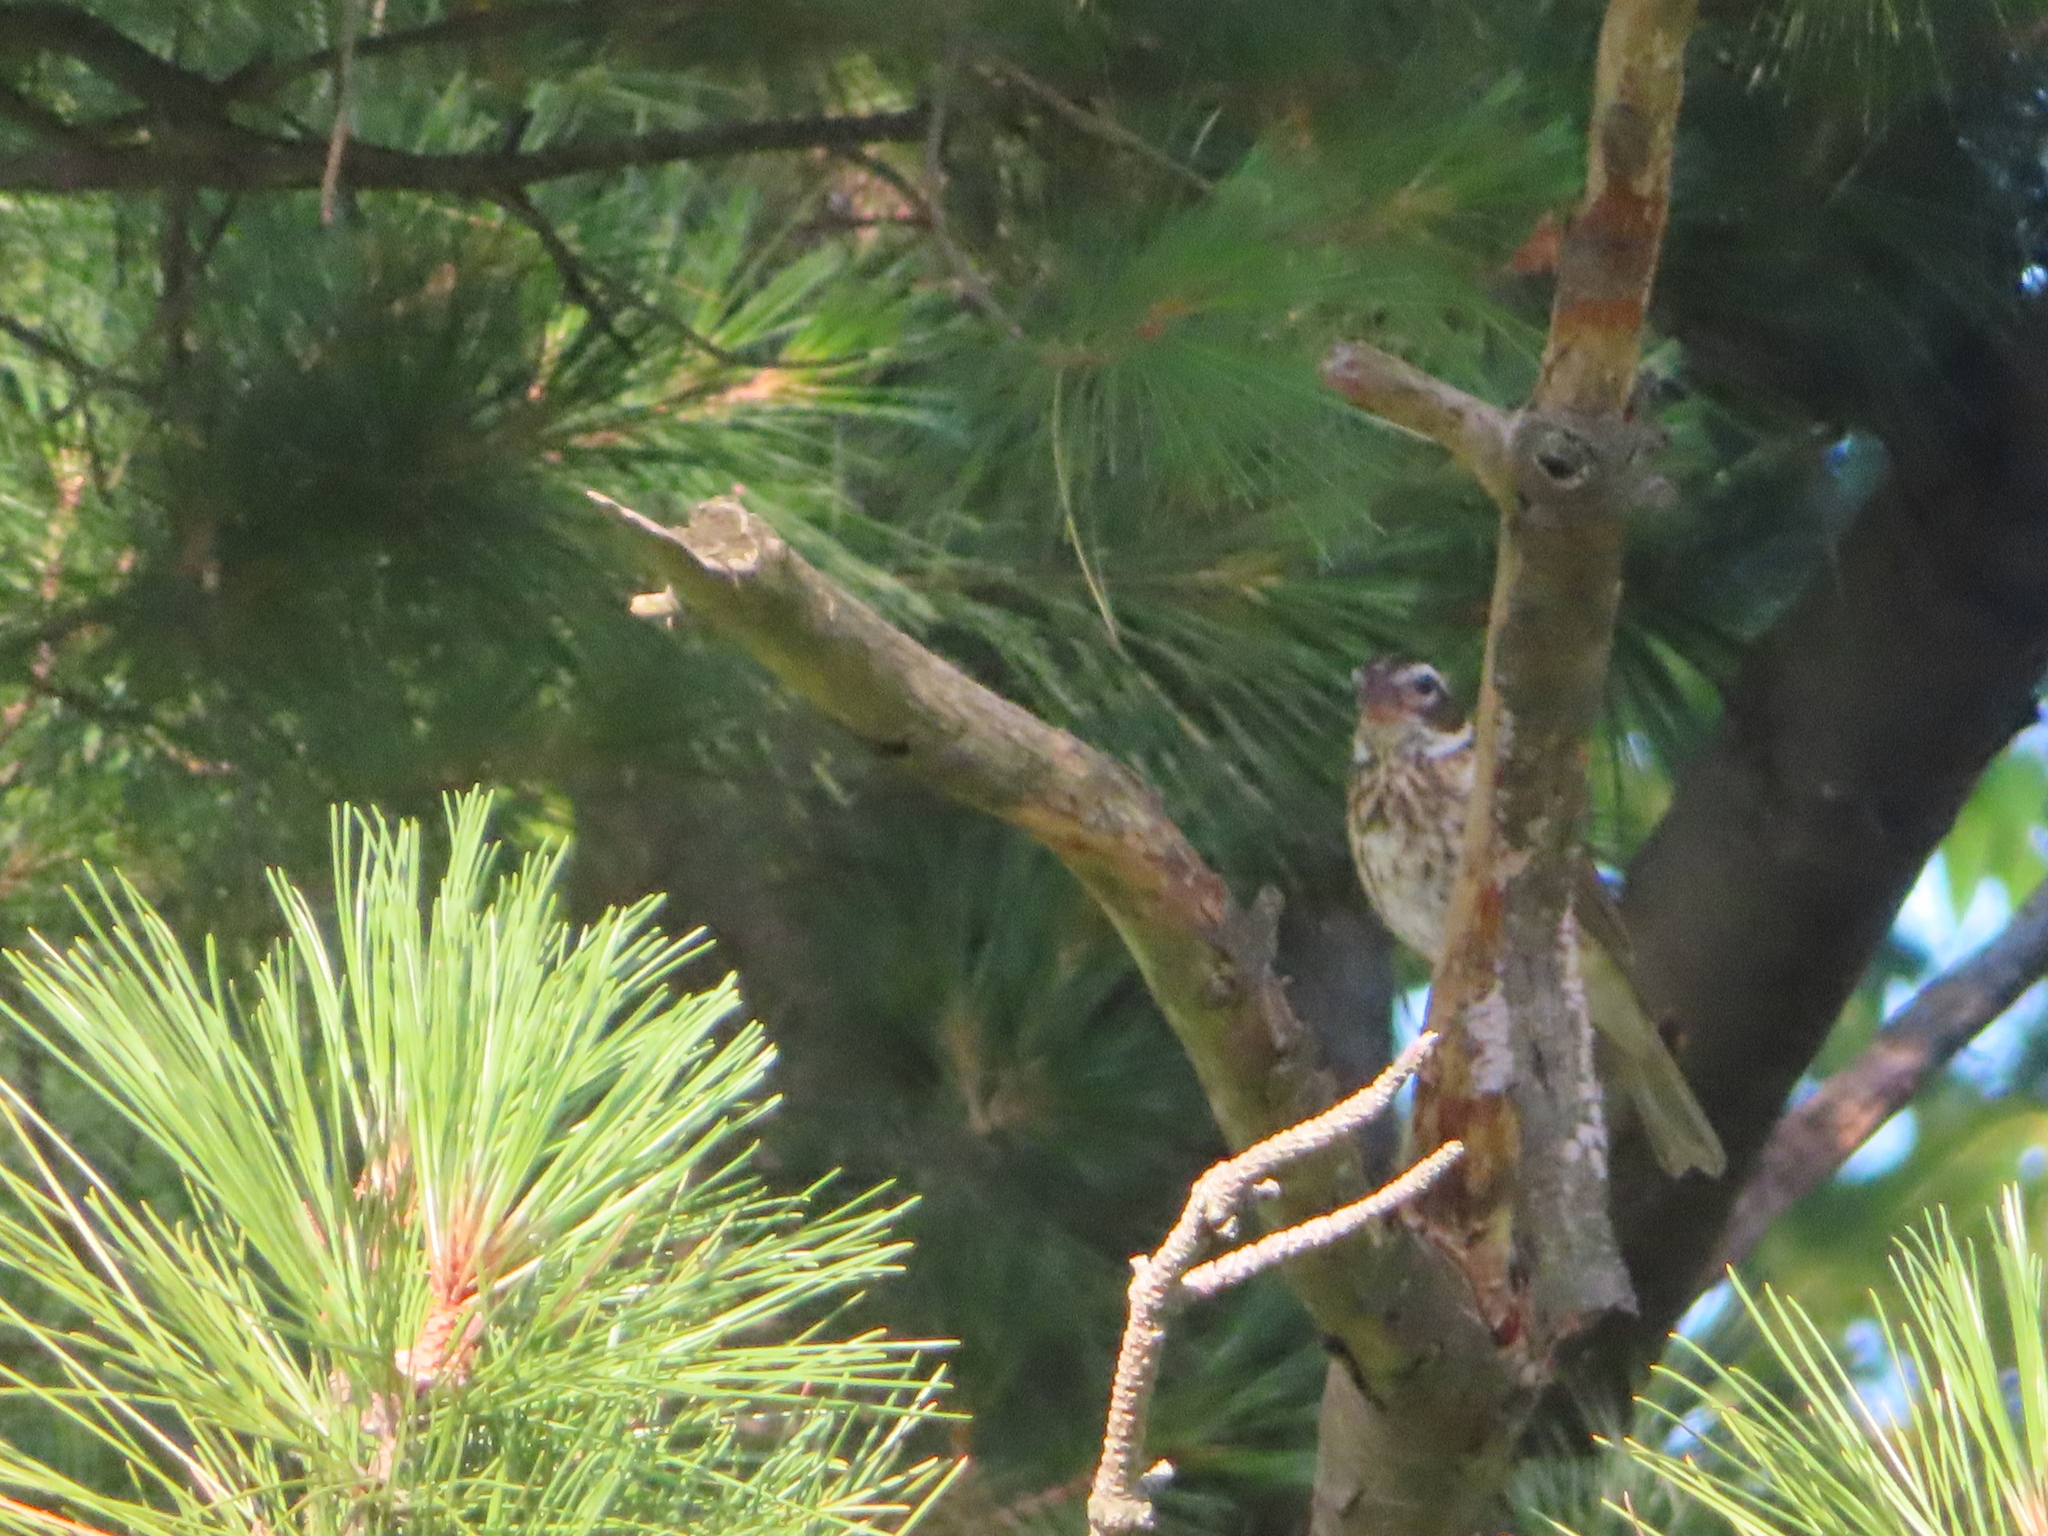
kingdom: Animalia
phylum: Chordata
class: Aves
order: Passeriformes
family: Cardinalidae
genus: Pheucticus
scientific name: Pheucticus ludovicianus
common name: Rose-breasted grosbeak
